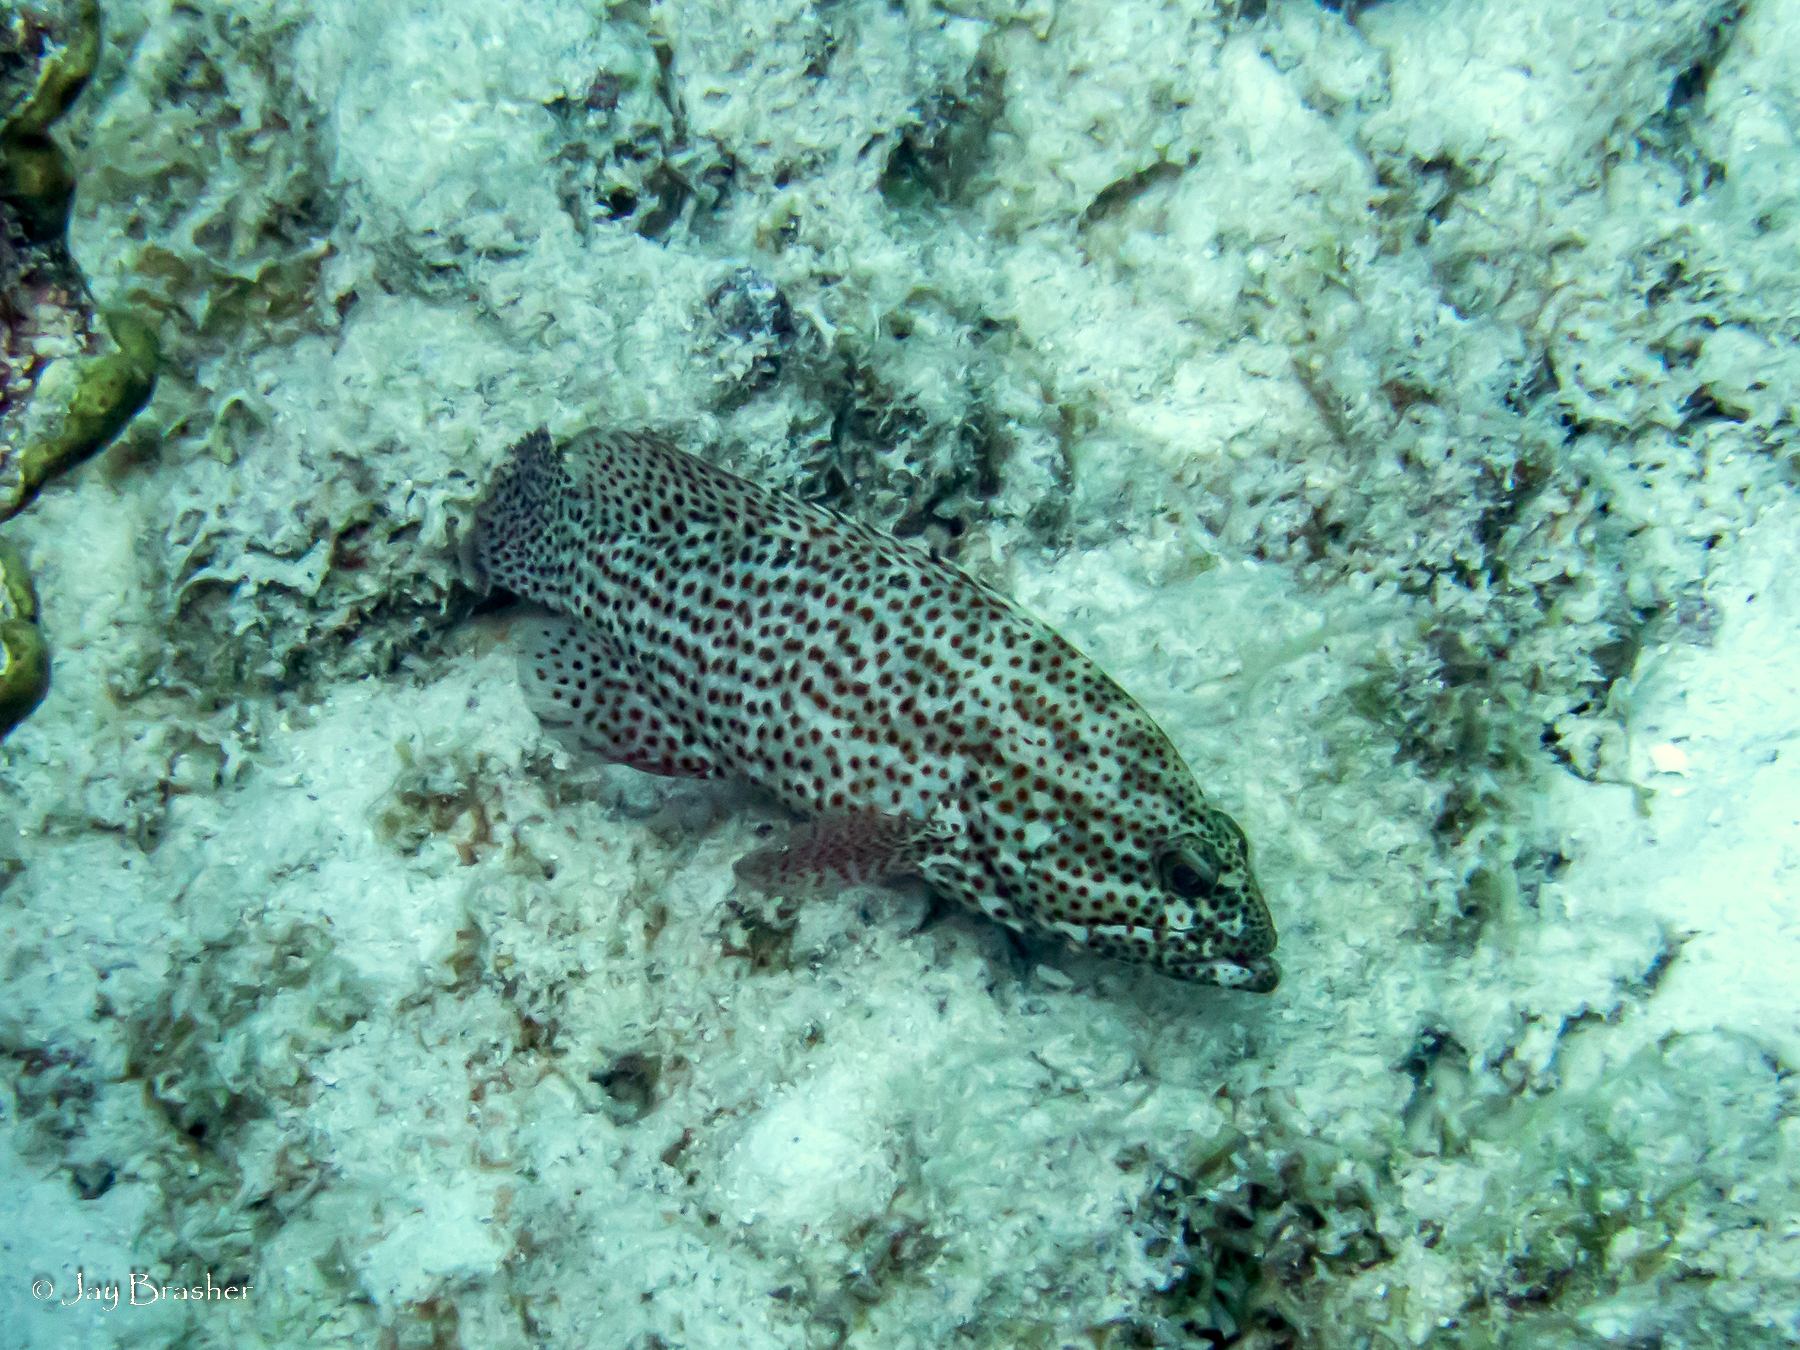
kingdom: Animalia
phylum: Chordata
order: Perciformes
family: Serranidae
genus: Cephalopholis
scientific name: Cephalopholis cruentata
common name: Graysby
